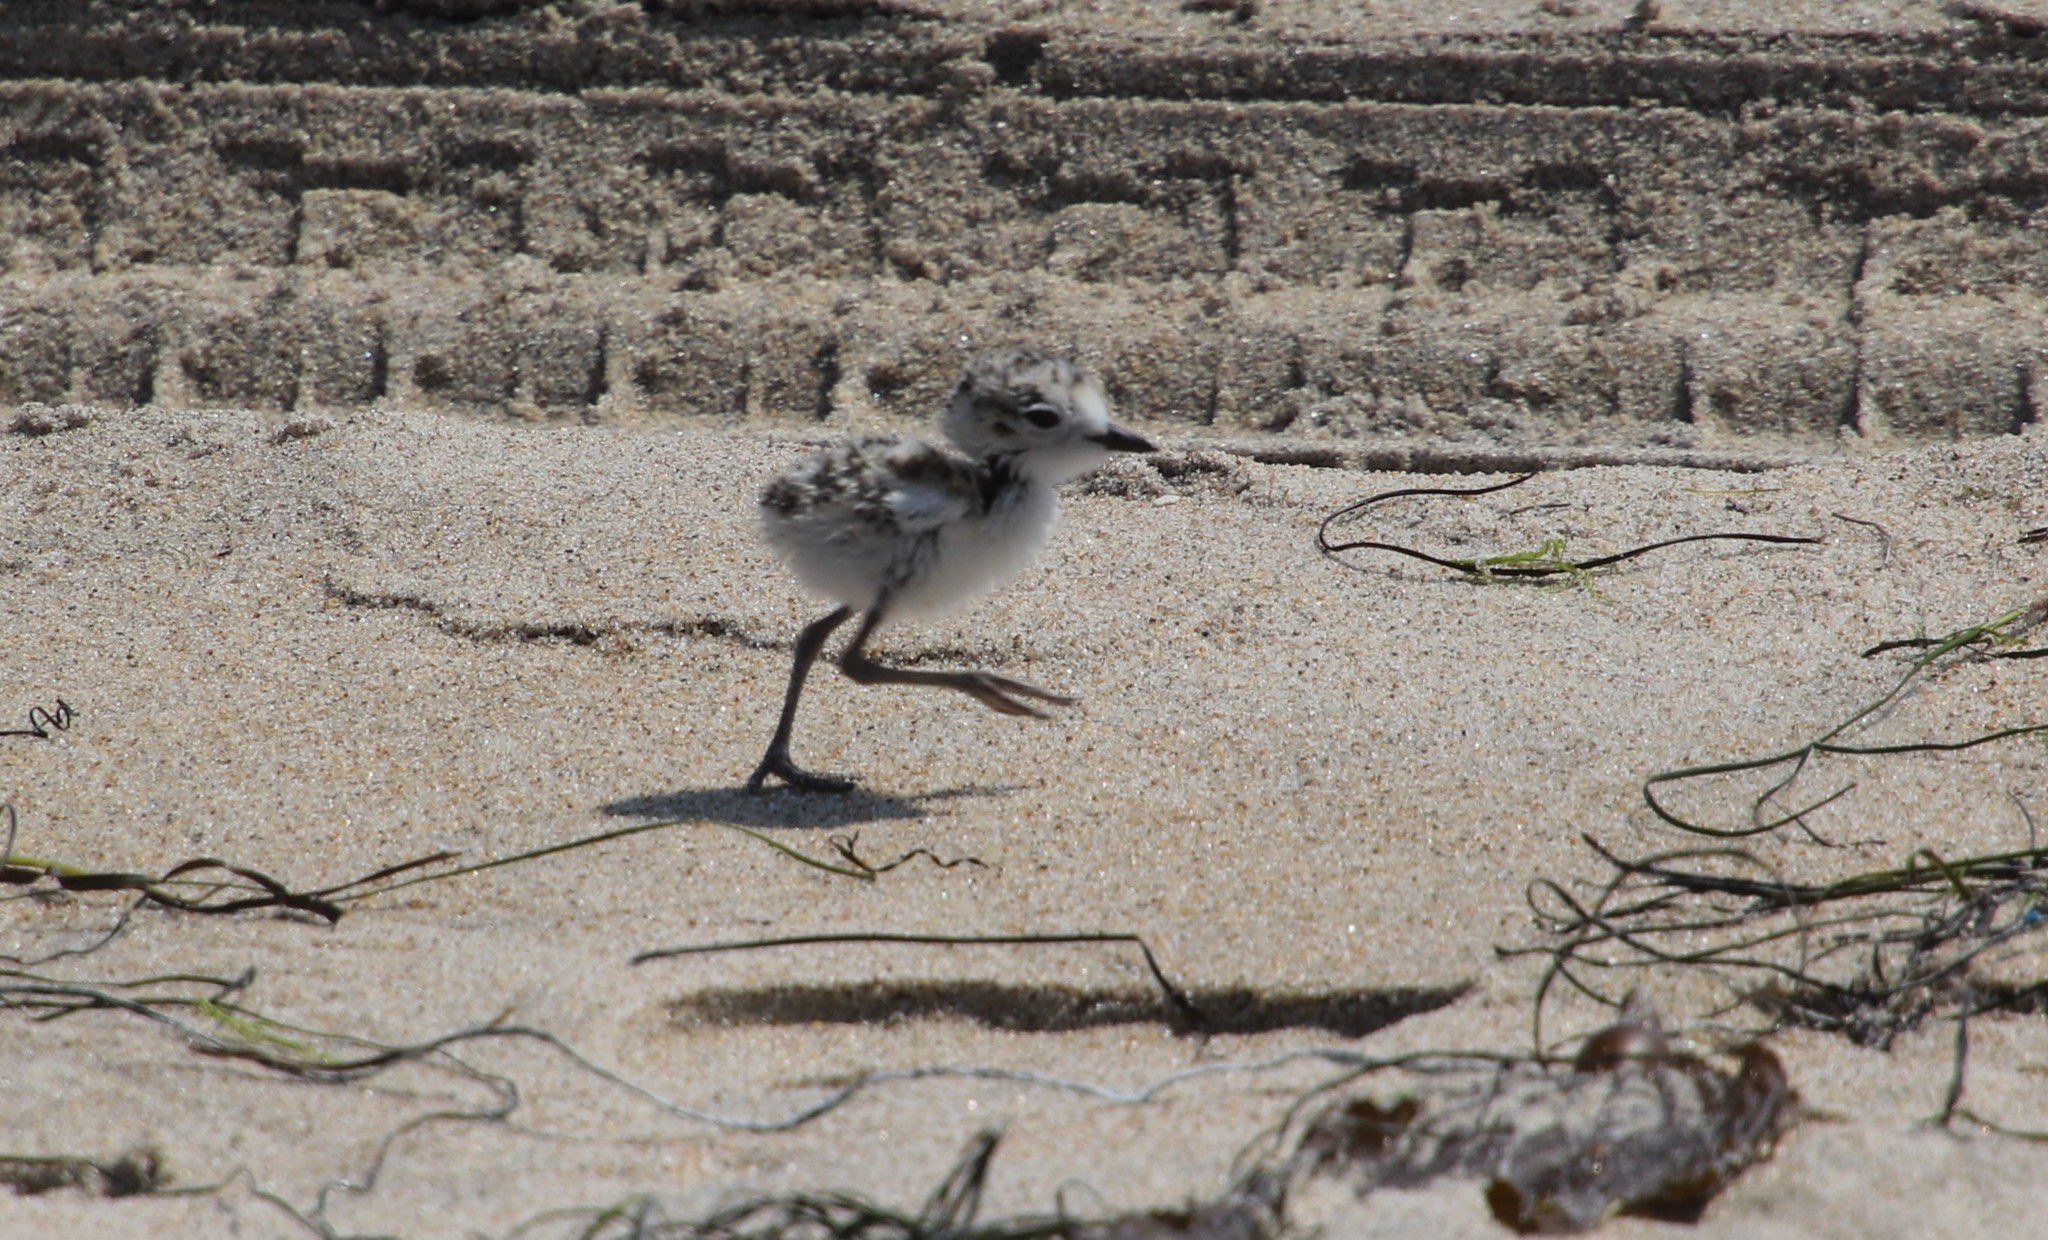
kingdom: Animalia
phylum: Chordata
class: Aves
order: Charadriiformes
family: Charadriidae
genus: Anarhynchus
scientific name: Anarhynchus
